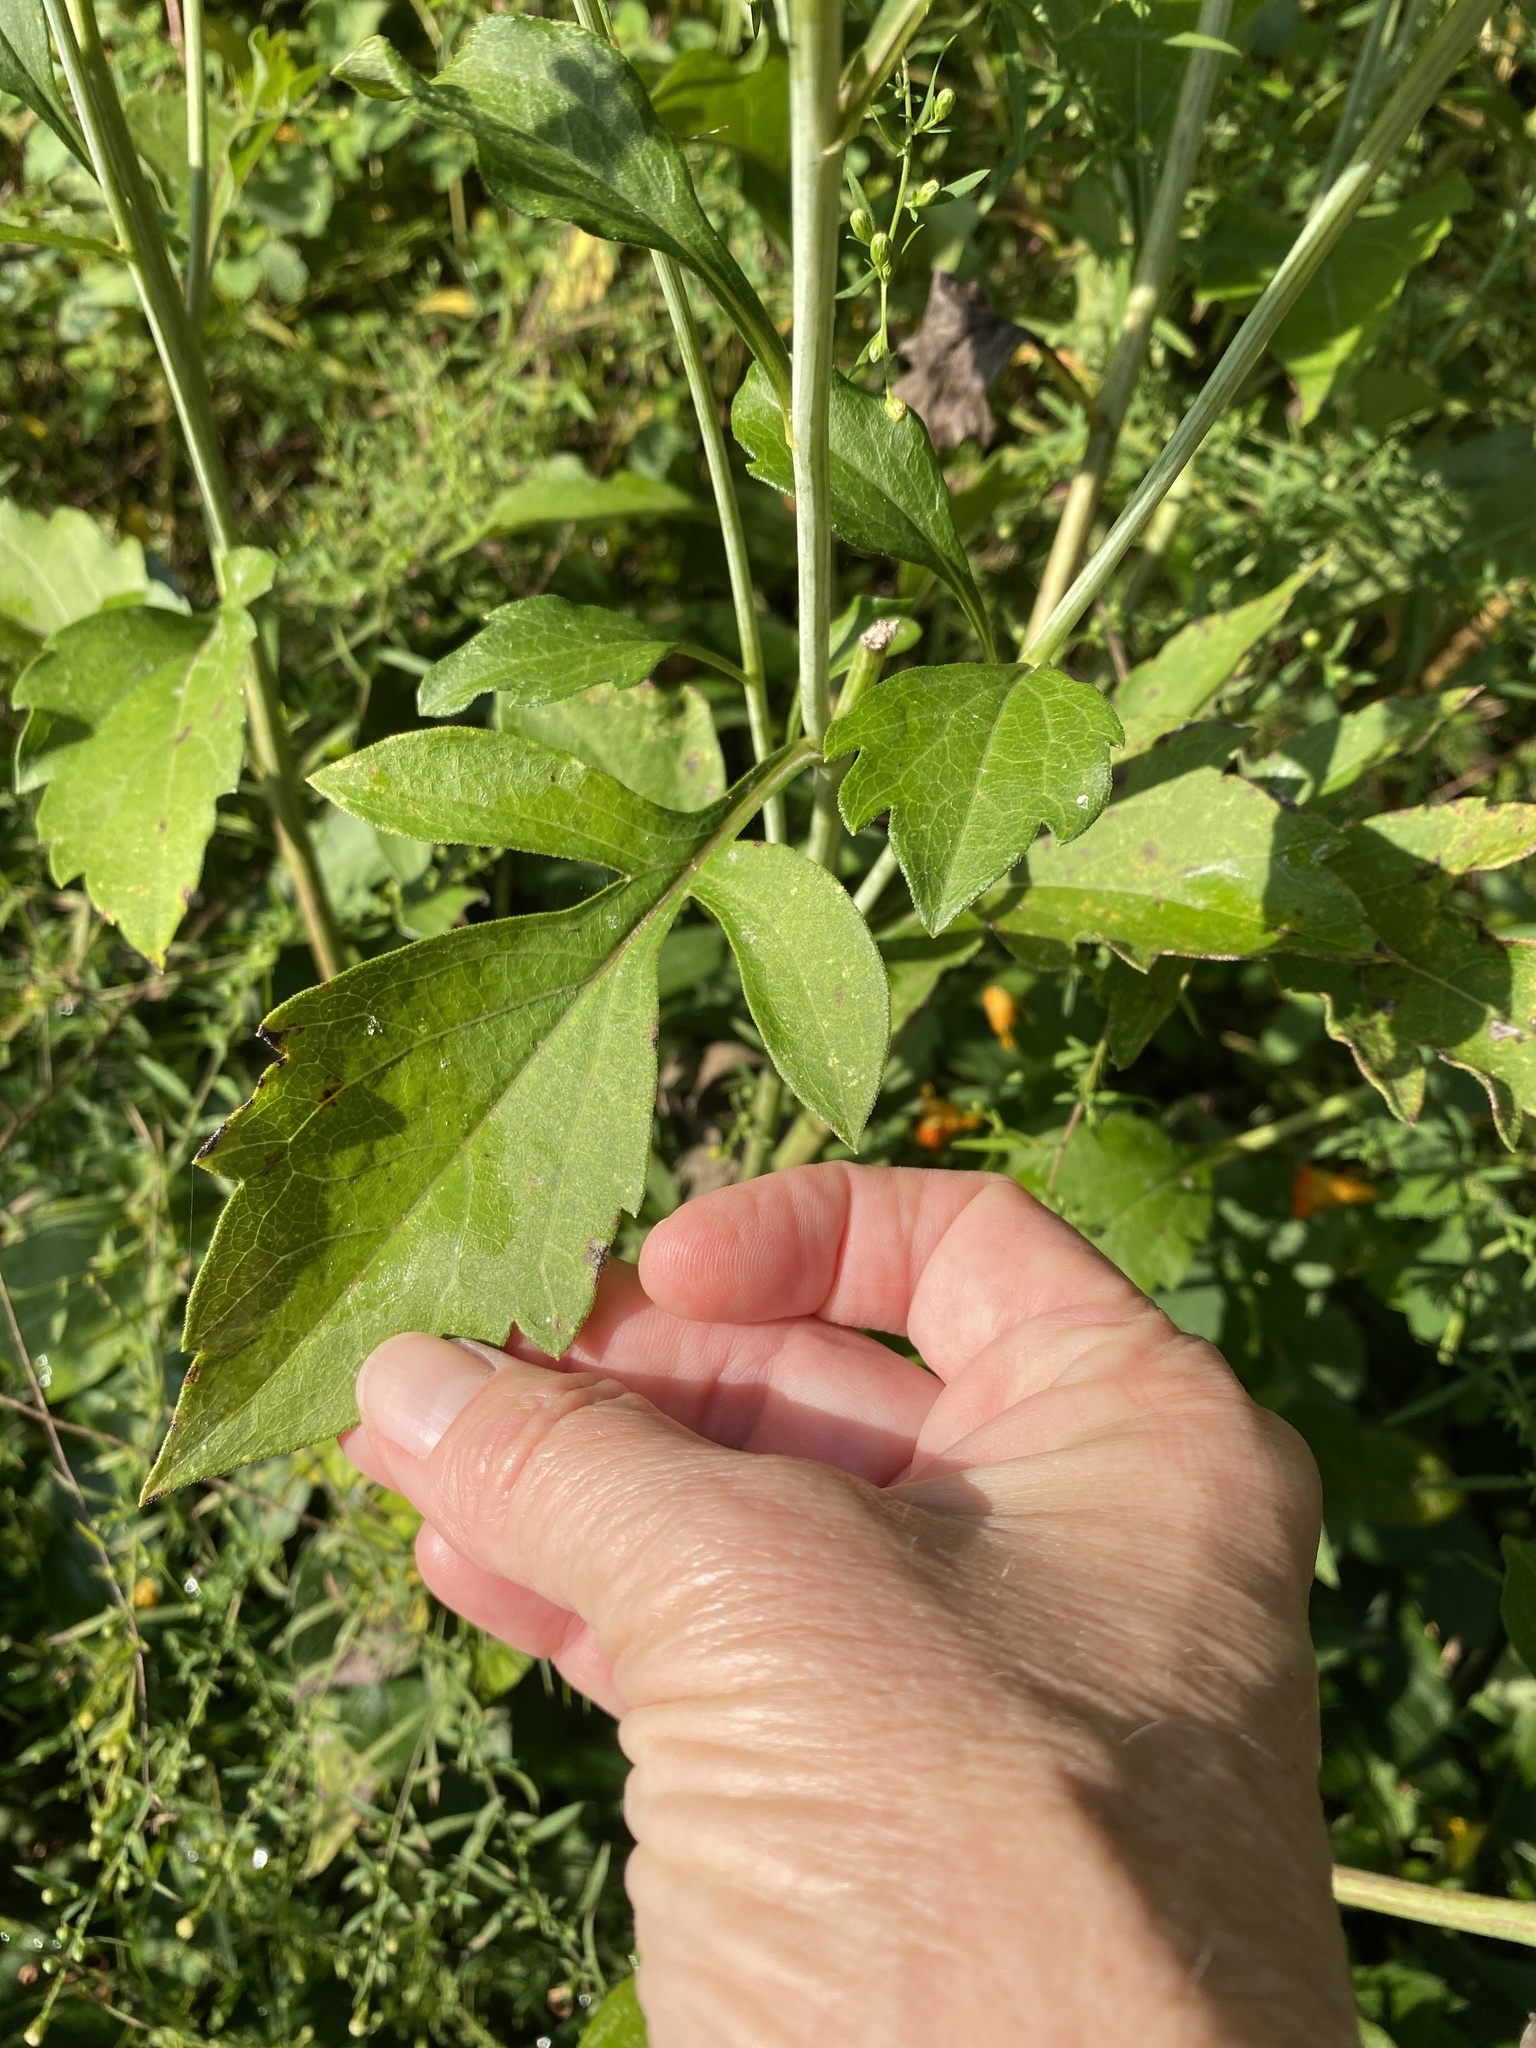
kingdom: Plantae
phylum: Tracheophyta
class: Magnoliopsida
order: Asterales
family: Asteraceae
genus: Rudbeckia
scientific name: Rudbeckia laciniata
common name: Coneflower
